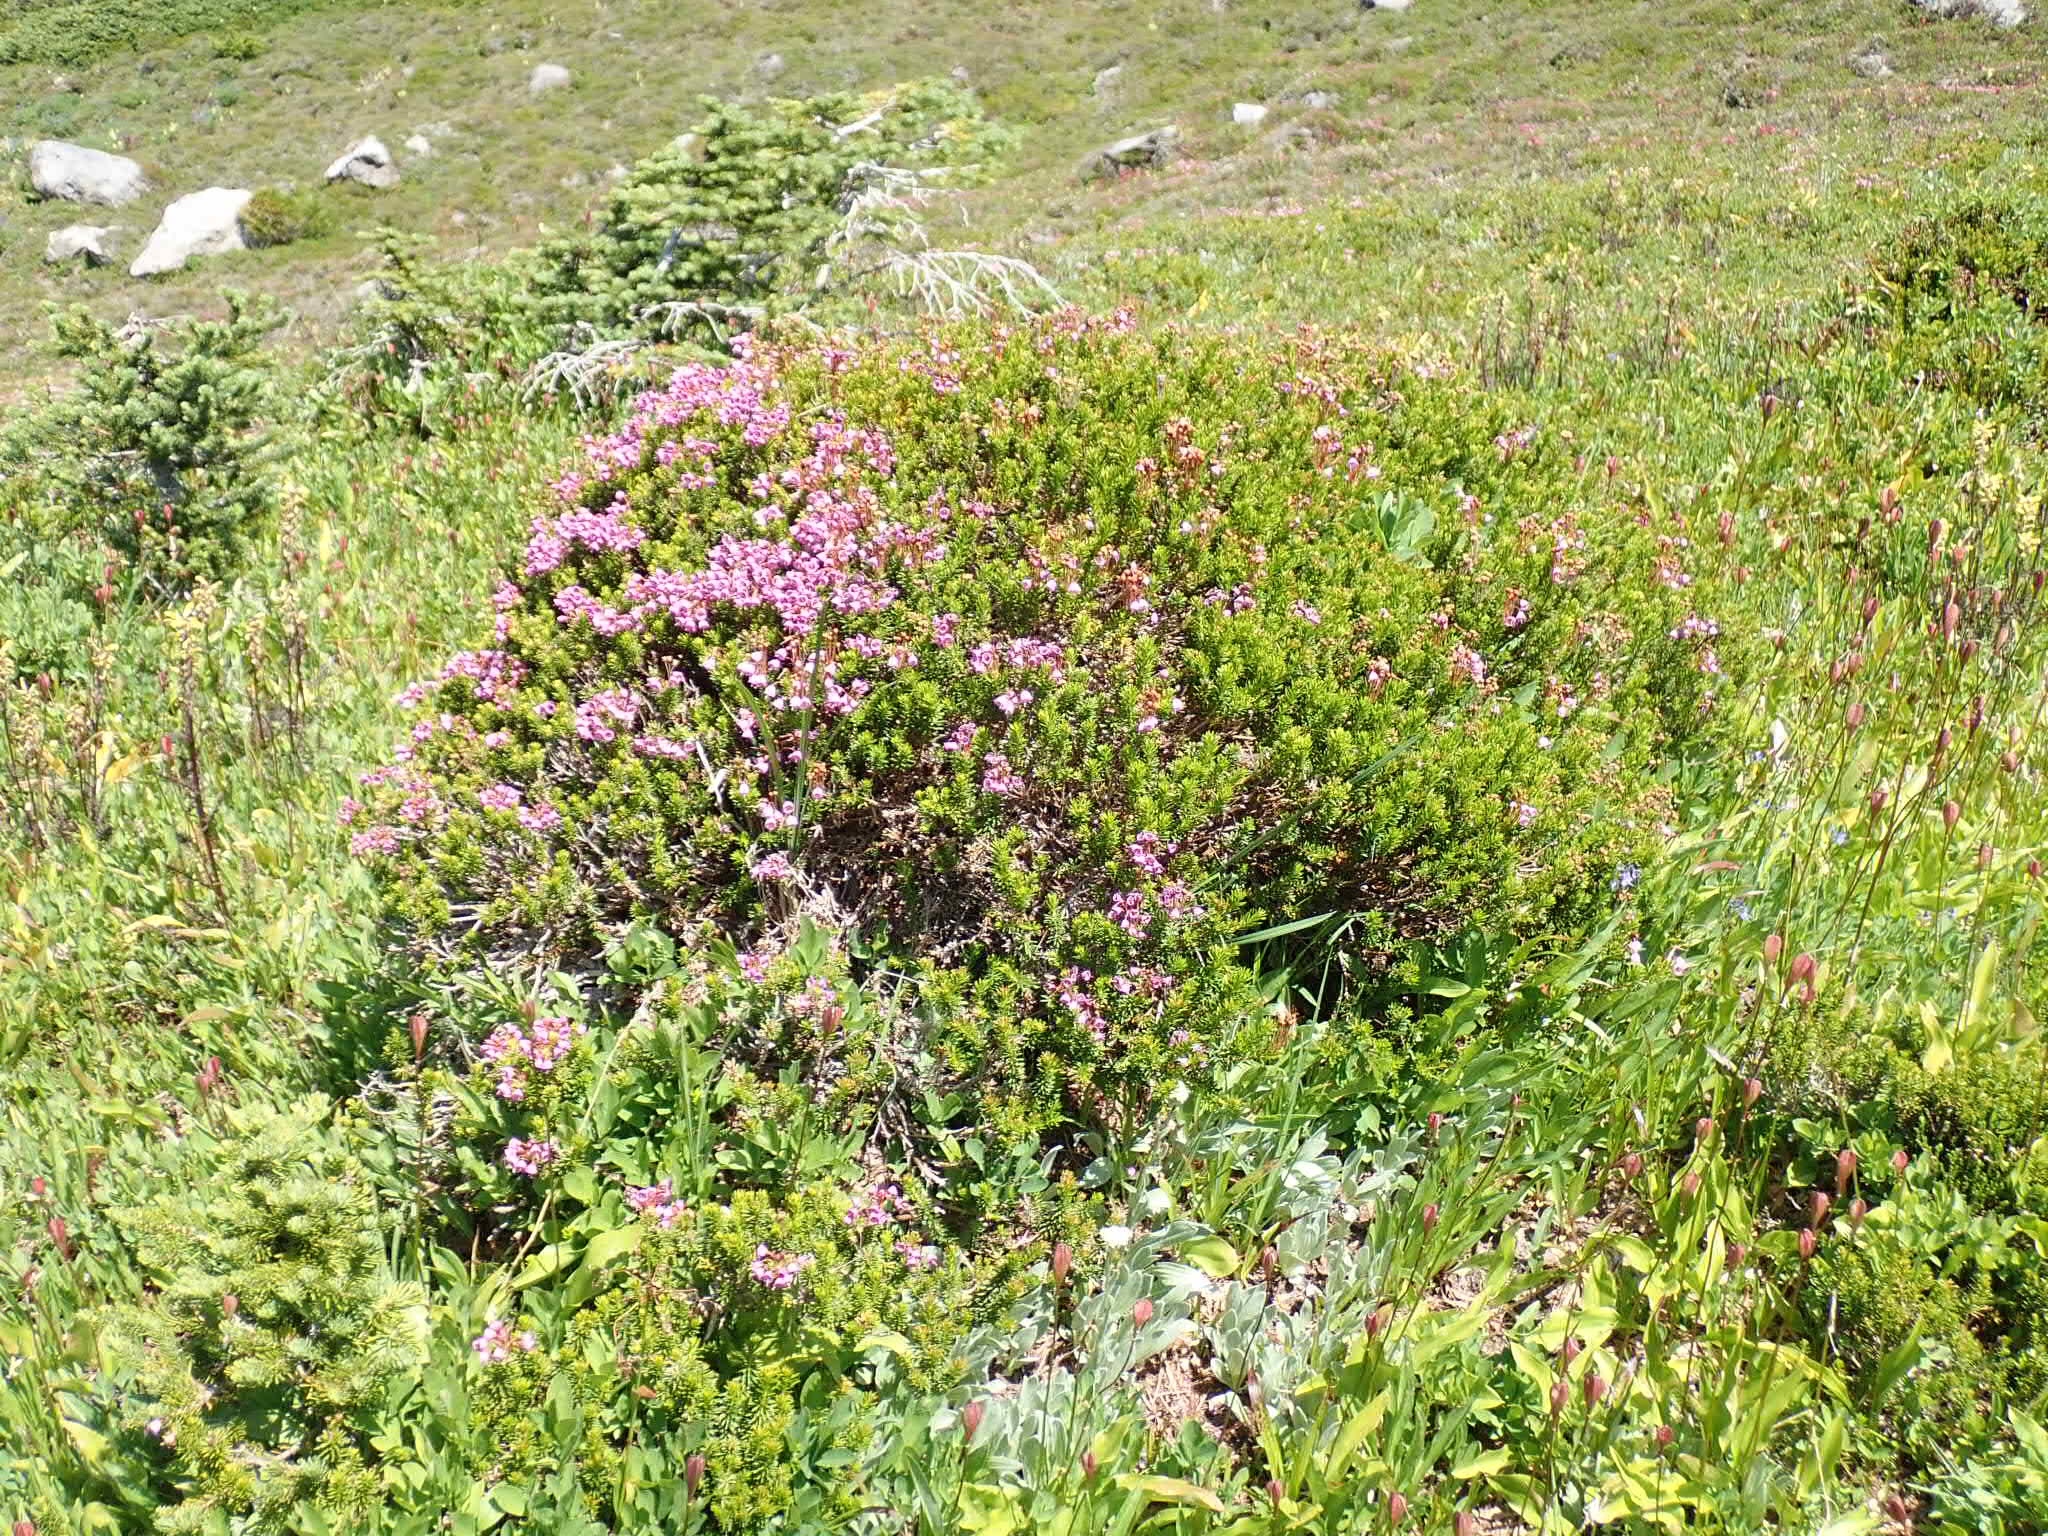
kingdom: Plantae
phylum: Tracheophyta
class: Magnoliopsida
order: Ericales
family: Ericaceae
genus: Phyllodoce
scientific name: Phyllodoce empetriformis
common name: Pink mountain heather
